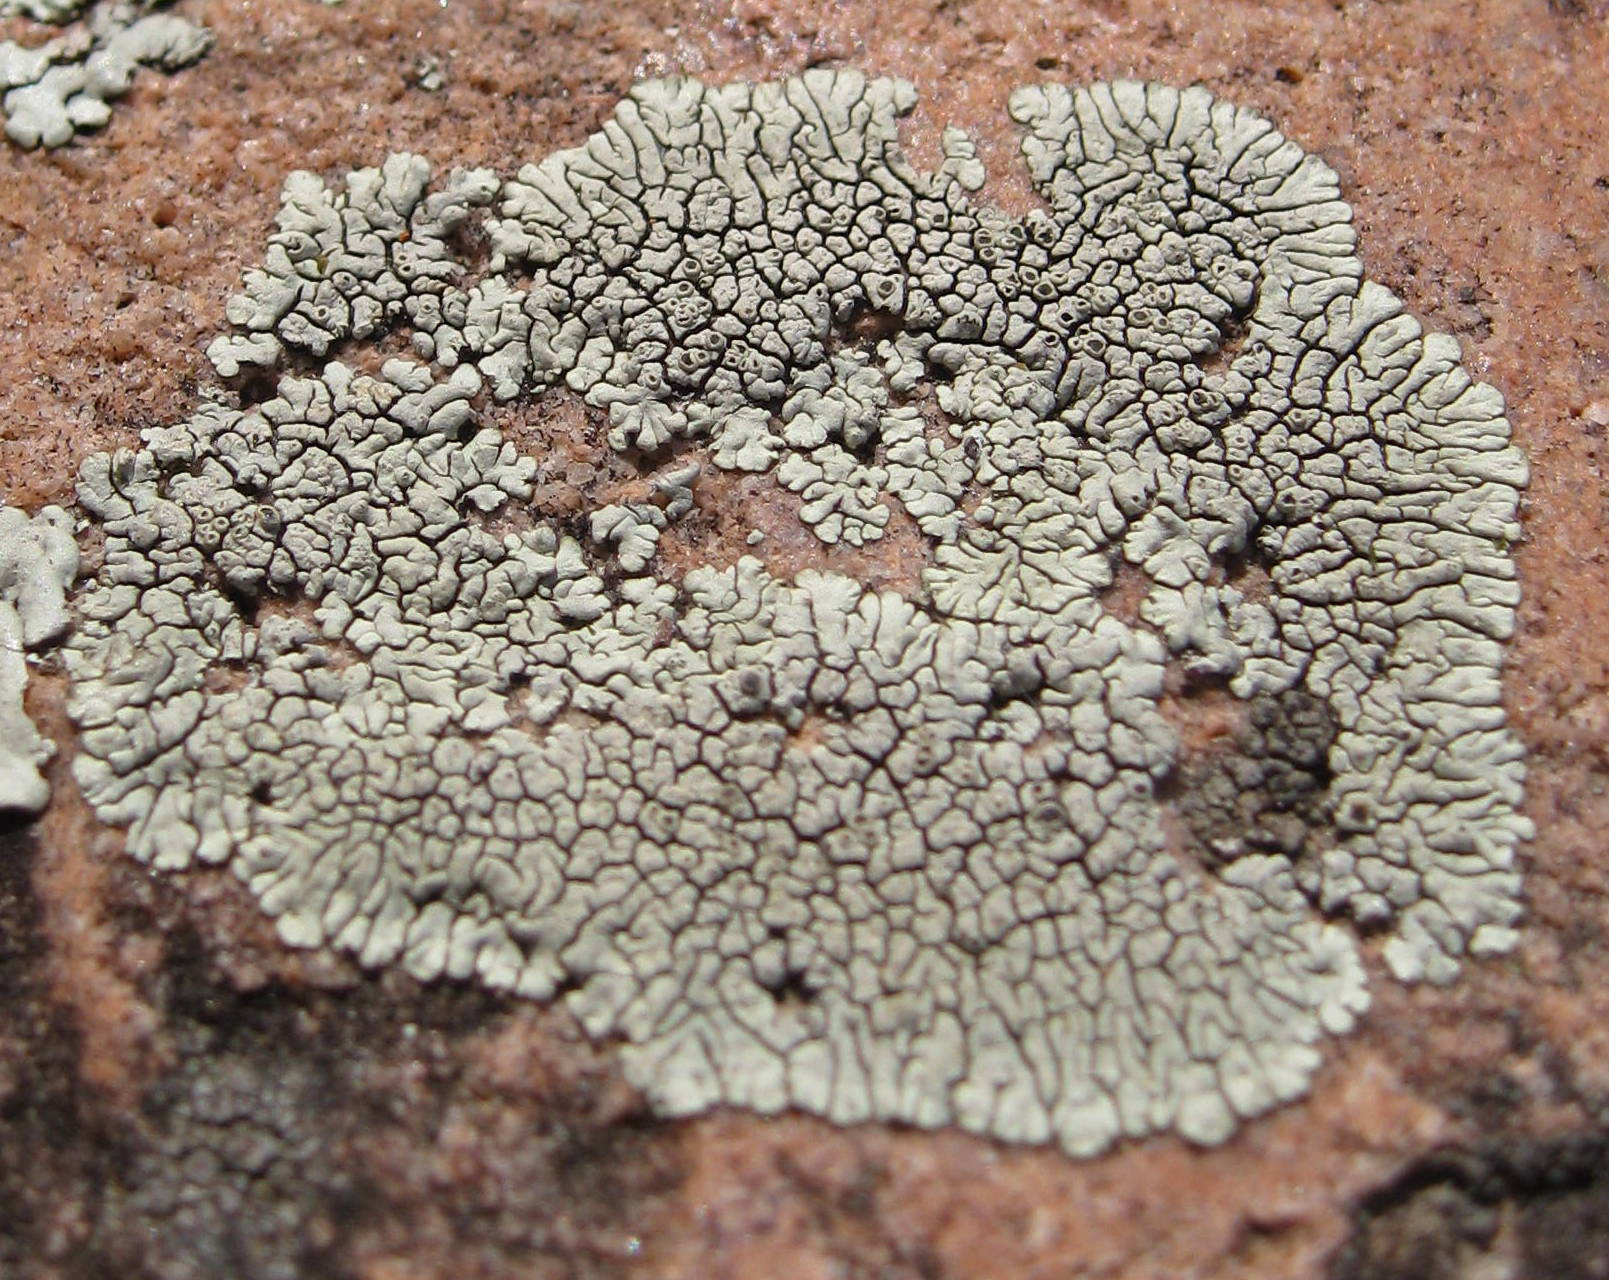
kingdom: Fungi
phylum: Ascomycota
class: Lecanoromycetes
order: Caliciales
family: Caliciaceae
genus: Dimelaena
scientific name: Dimelaena oreina
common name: Golden moonglow lichen
